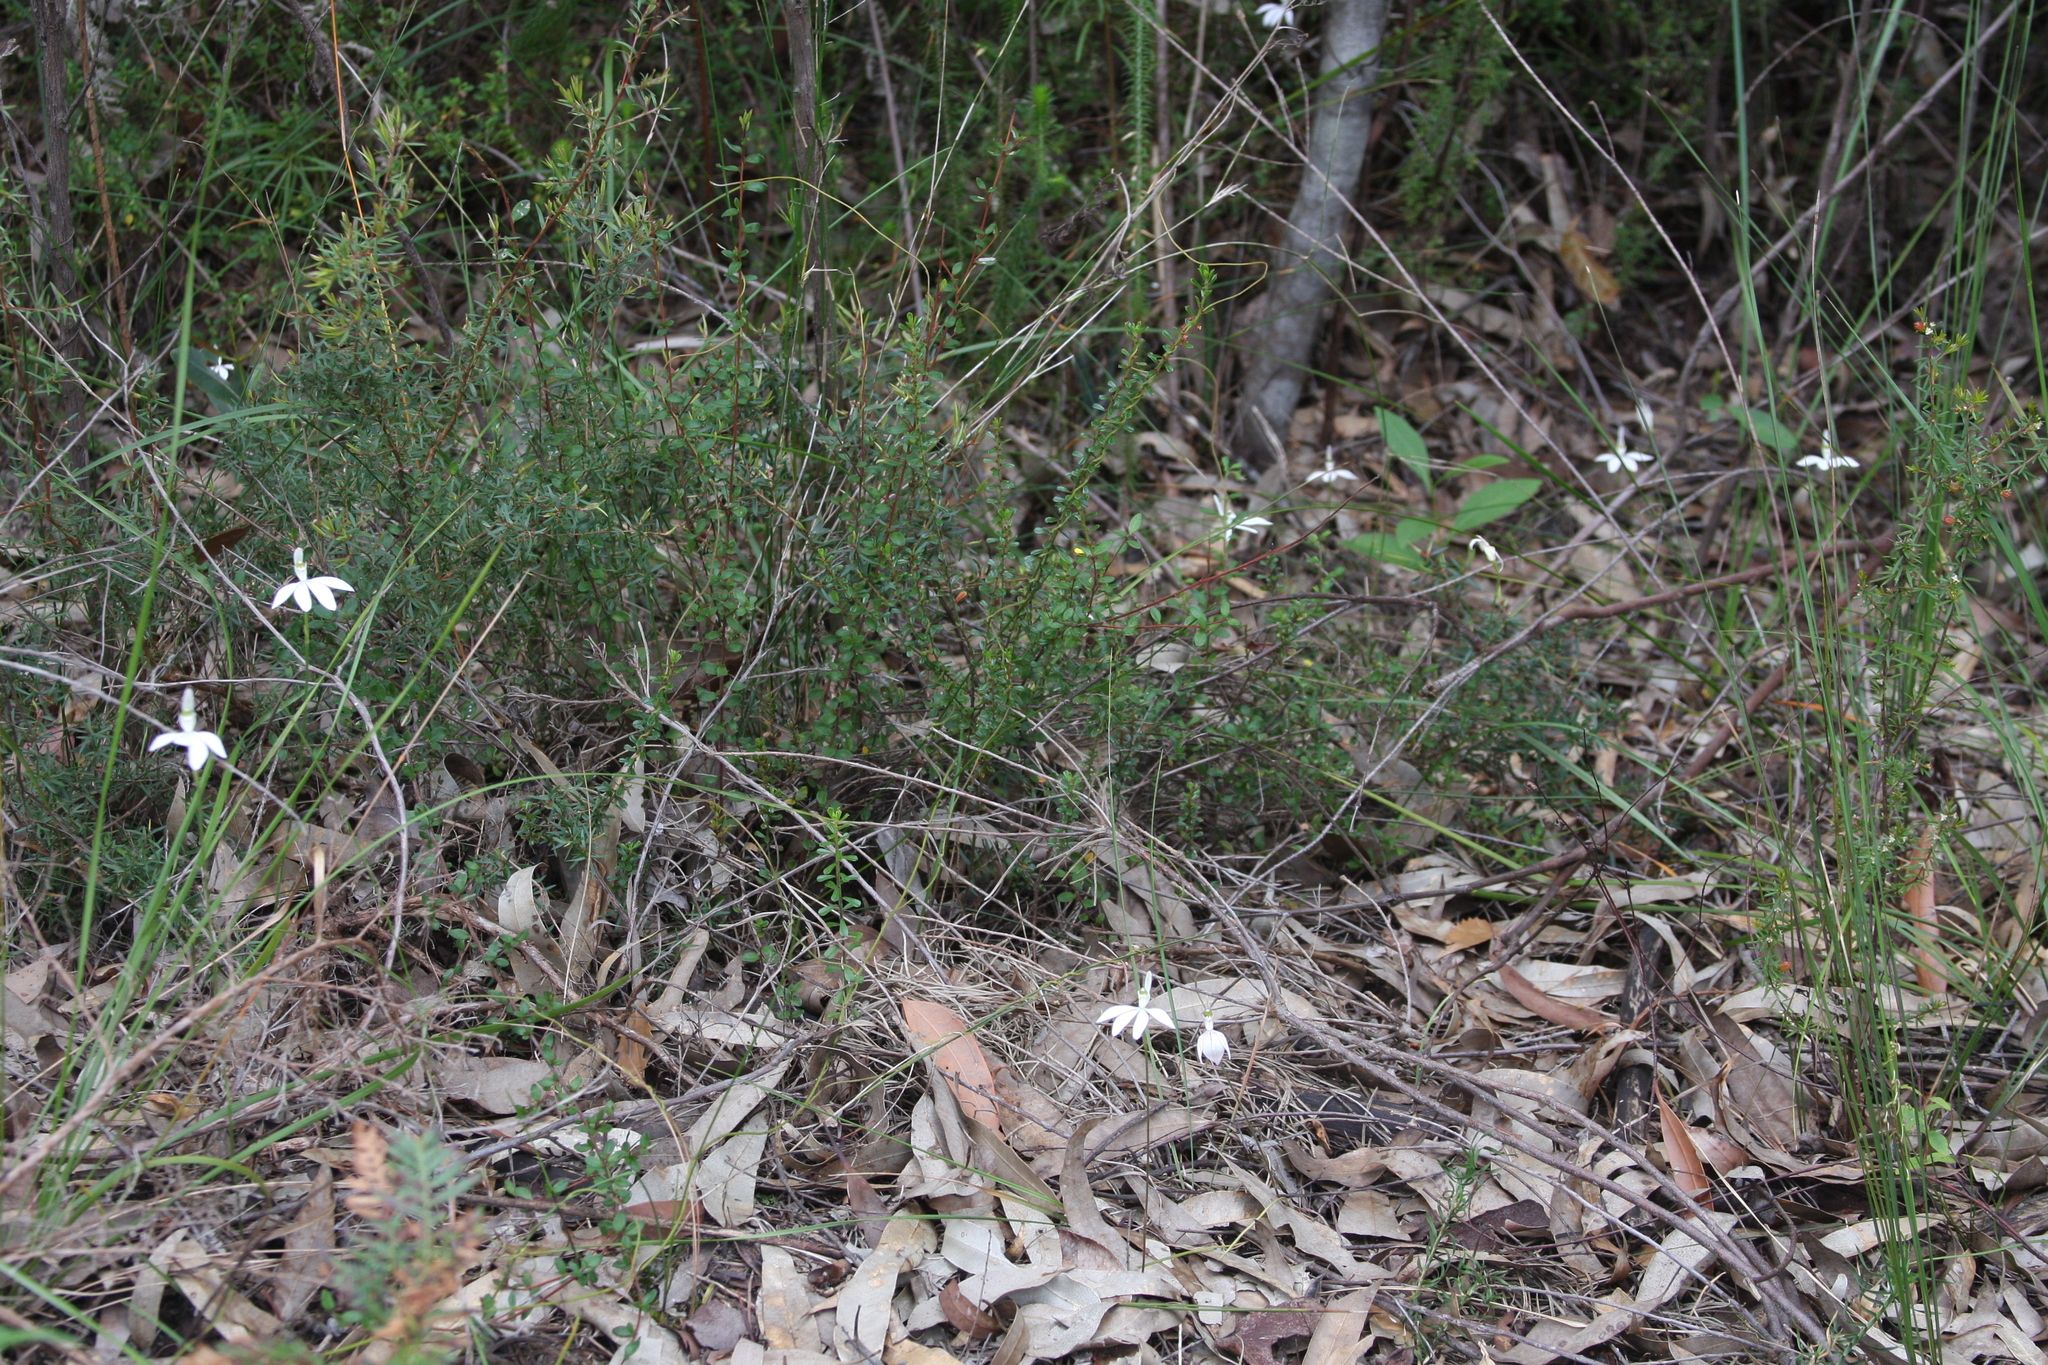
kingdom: Plantae
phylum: Tracheophyta
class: Liliopsida
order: Asparagales
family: Orchidaceae
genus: Caladenia
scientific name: Caladenia catenata
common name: White caladenia
